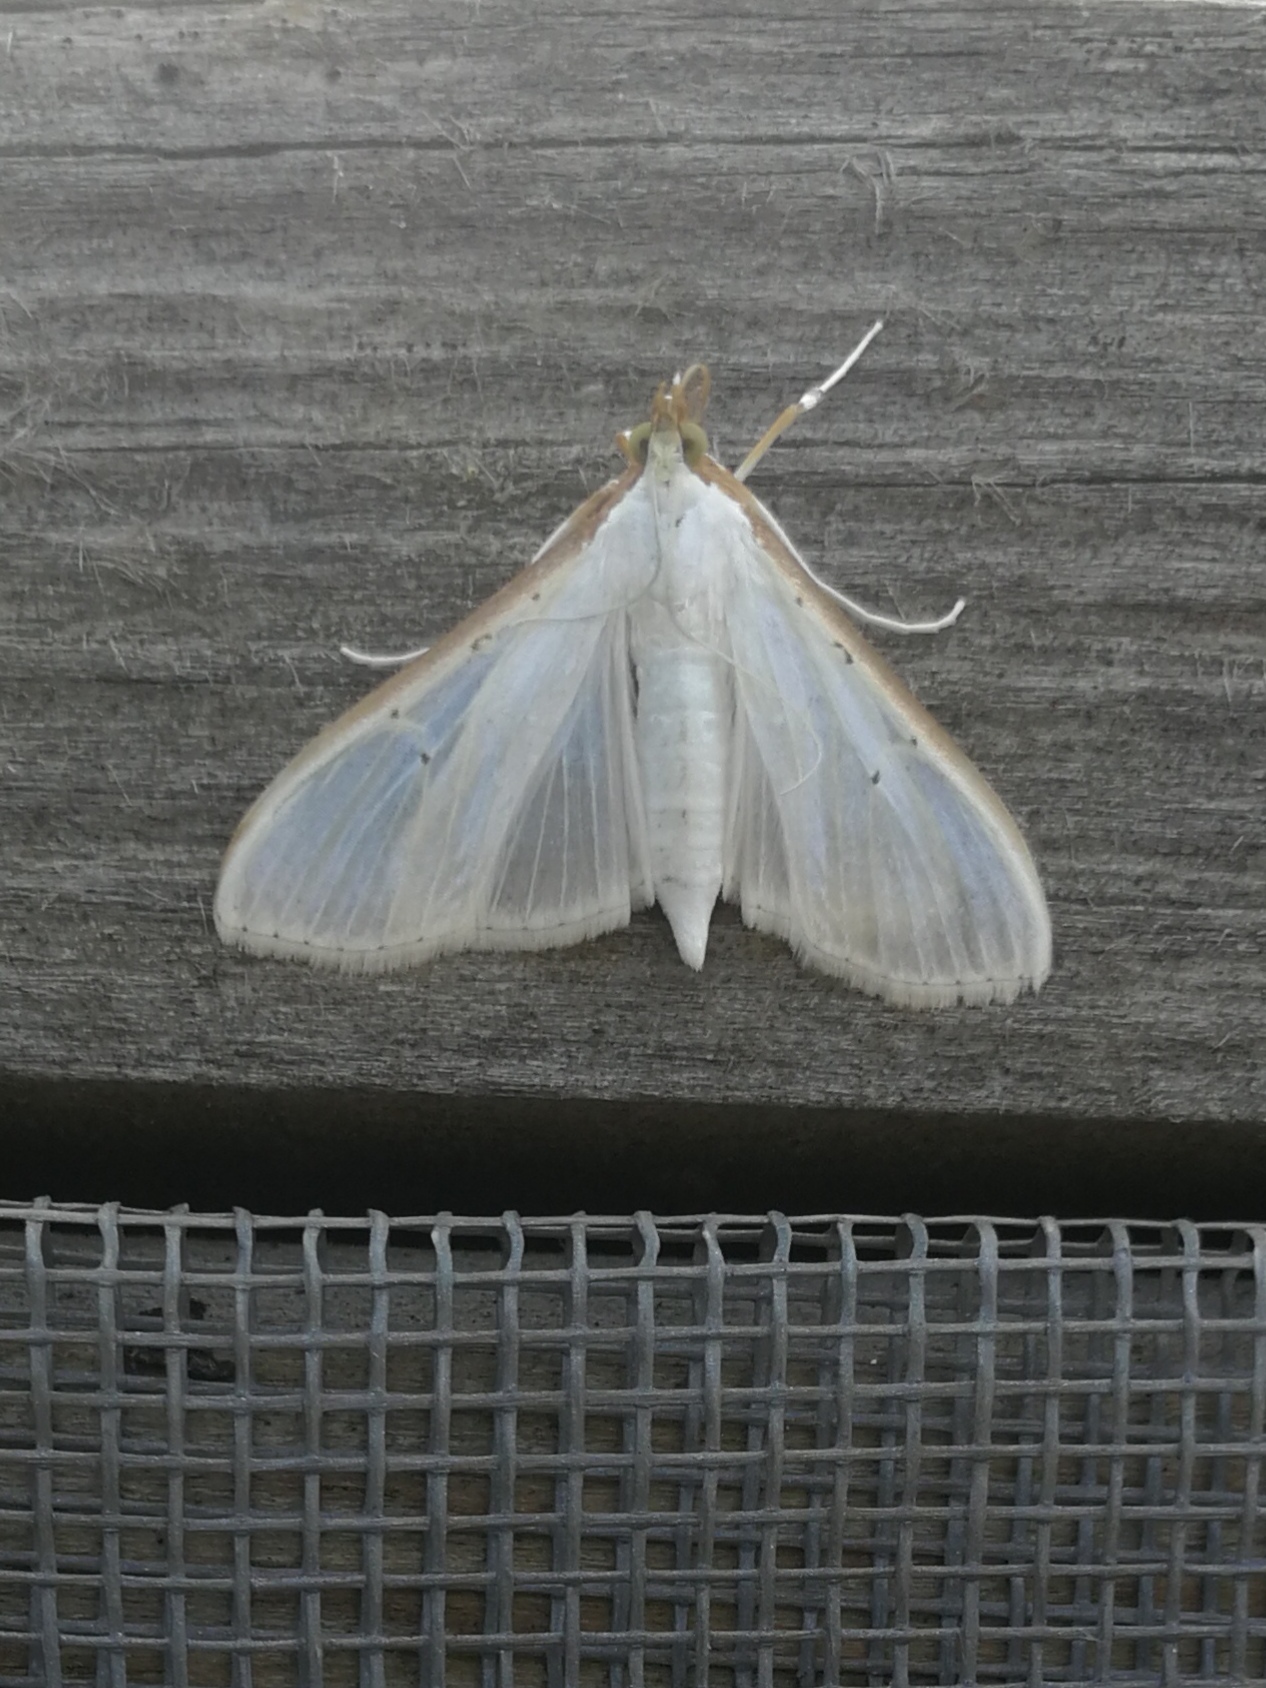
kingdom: Animalia
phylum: Arthropoda
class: Insecta
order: Lepidoptera
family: Crambidae
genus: Palpita
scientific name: Palpita vitrealis
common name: Olive-tree pearl
